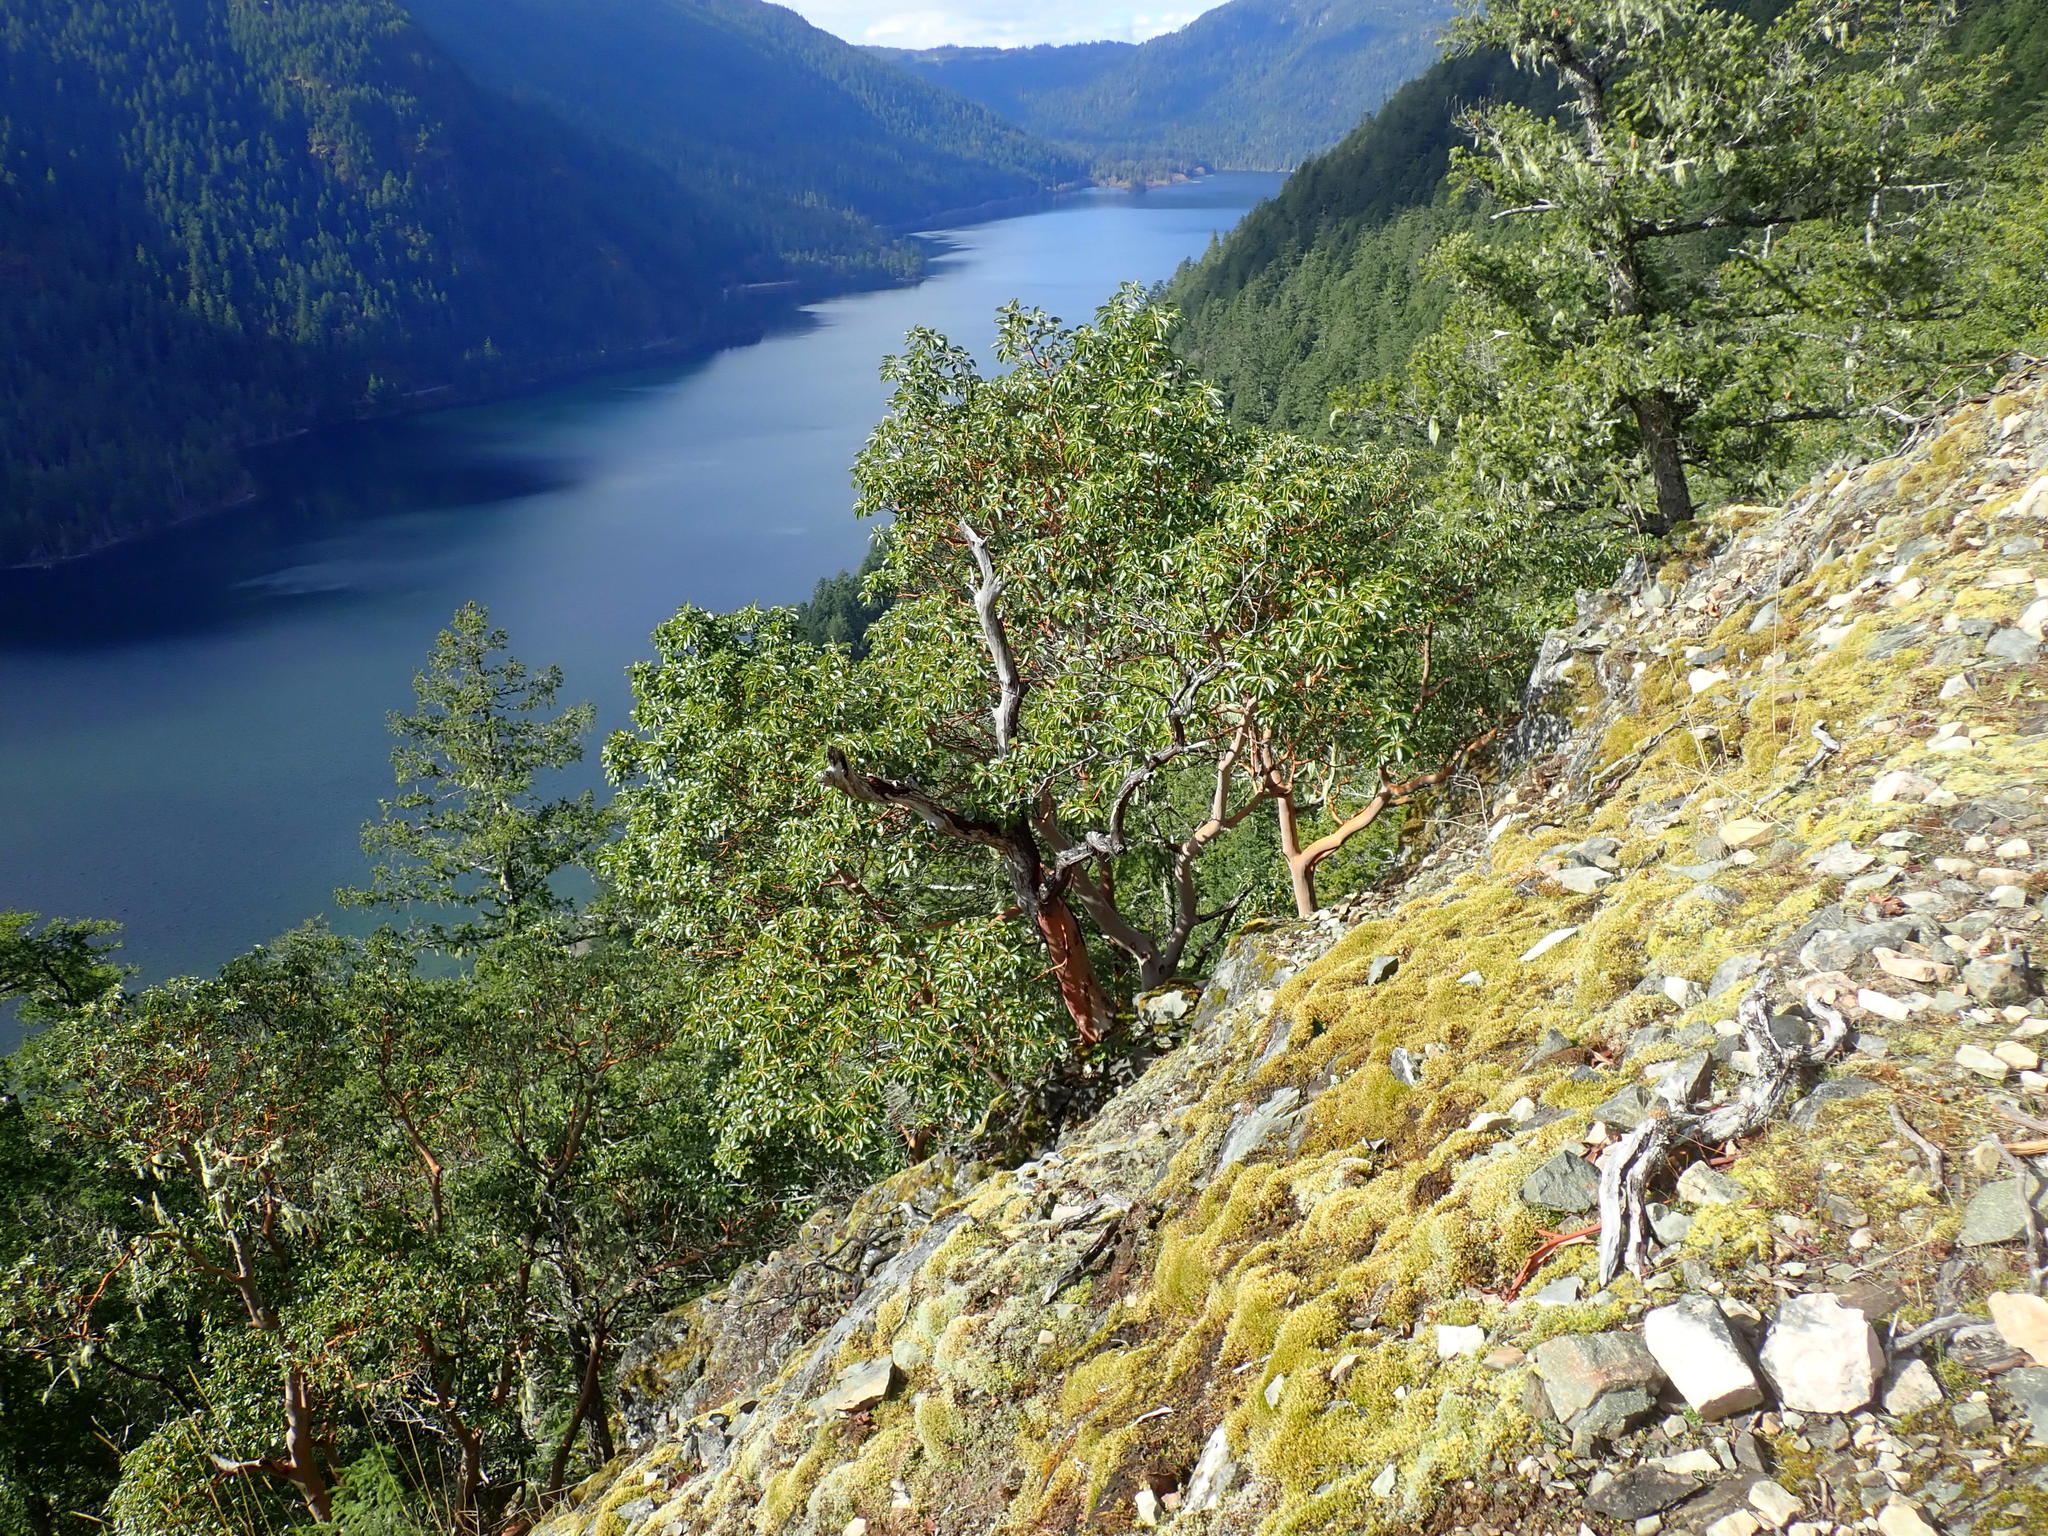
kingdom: Plantae
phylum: Tracheophyta
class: Magnoliopsida
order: Ericales
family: Ericaceae
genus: Arbutus
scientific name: Arbutus menziesii
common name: Pacific madrone
